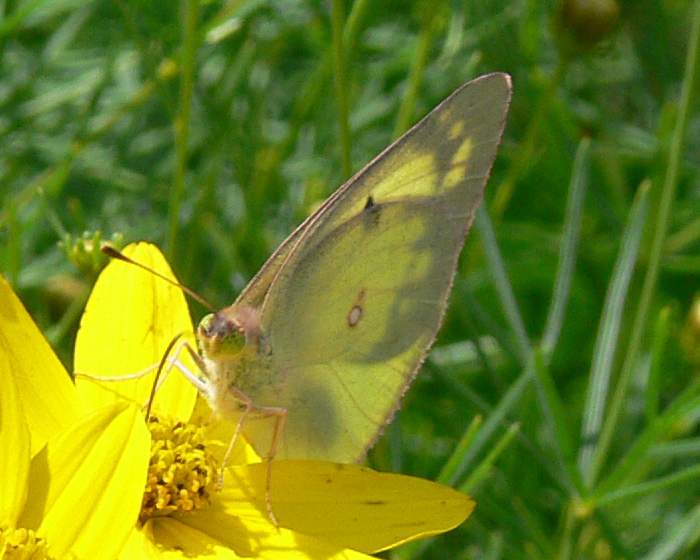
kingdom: Animalia
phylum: Arthropoda
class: Insecta
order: Lepidoptera
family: Pieridae
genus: Colias
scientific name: Colias philodice
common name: Clouded sulphur
